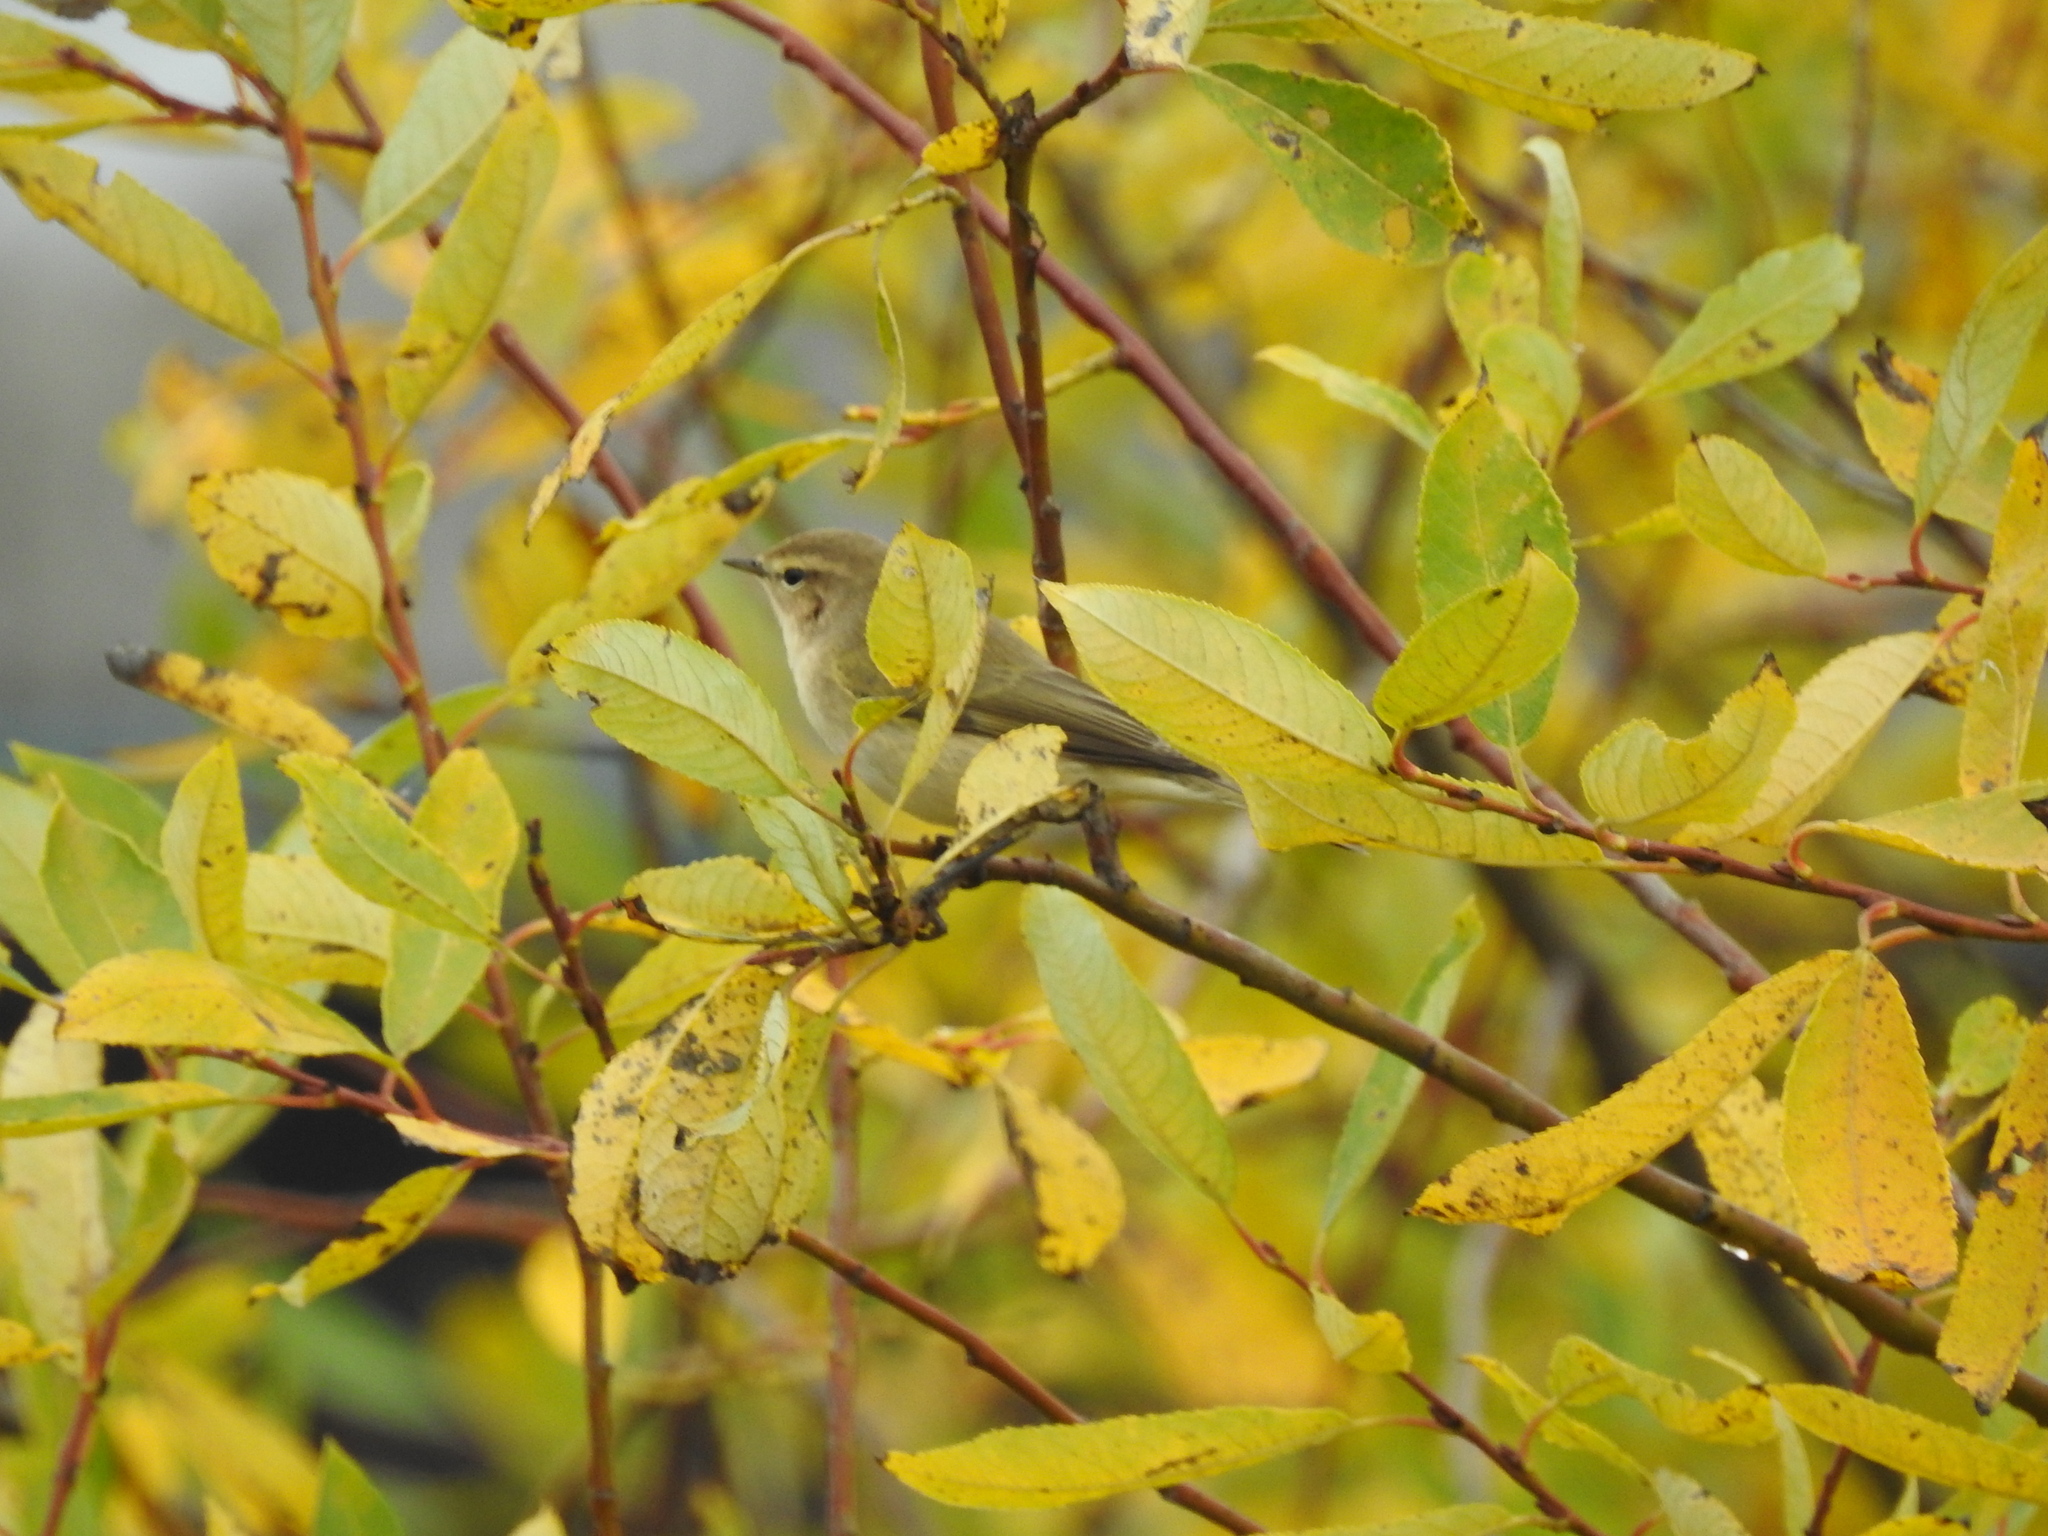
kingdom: Animalia
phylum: Chordata
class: Aves
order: Passeriformes
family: Phylloscopidae
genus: Phylloscopus
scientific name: Phylloscopus collybita
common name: Common chiffchaff
